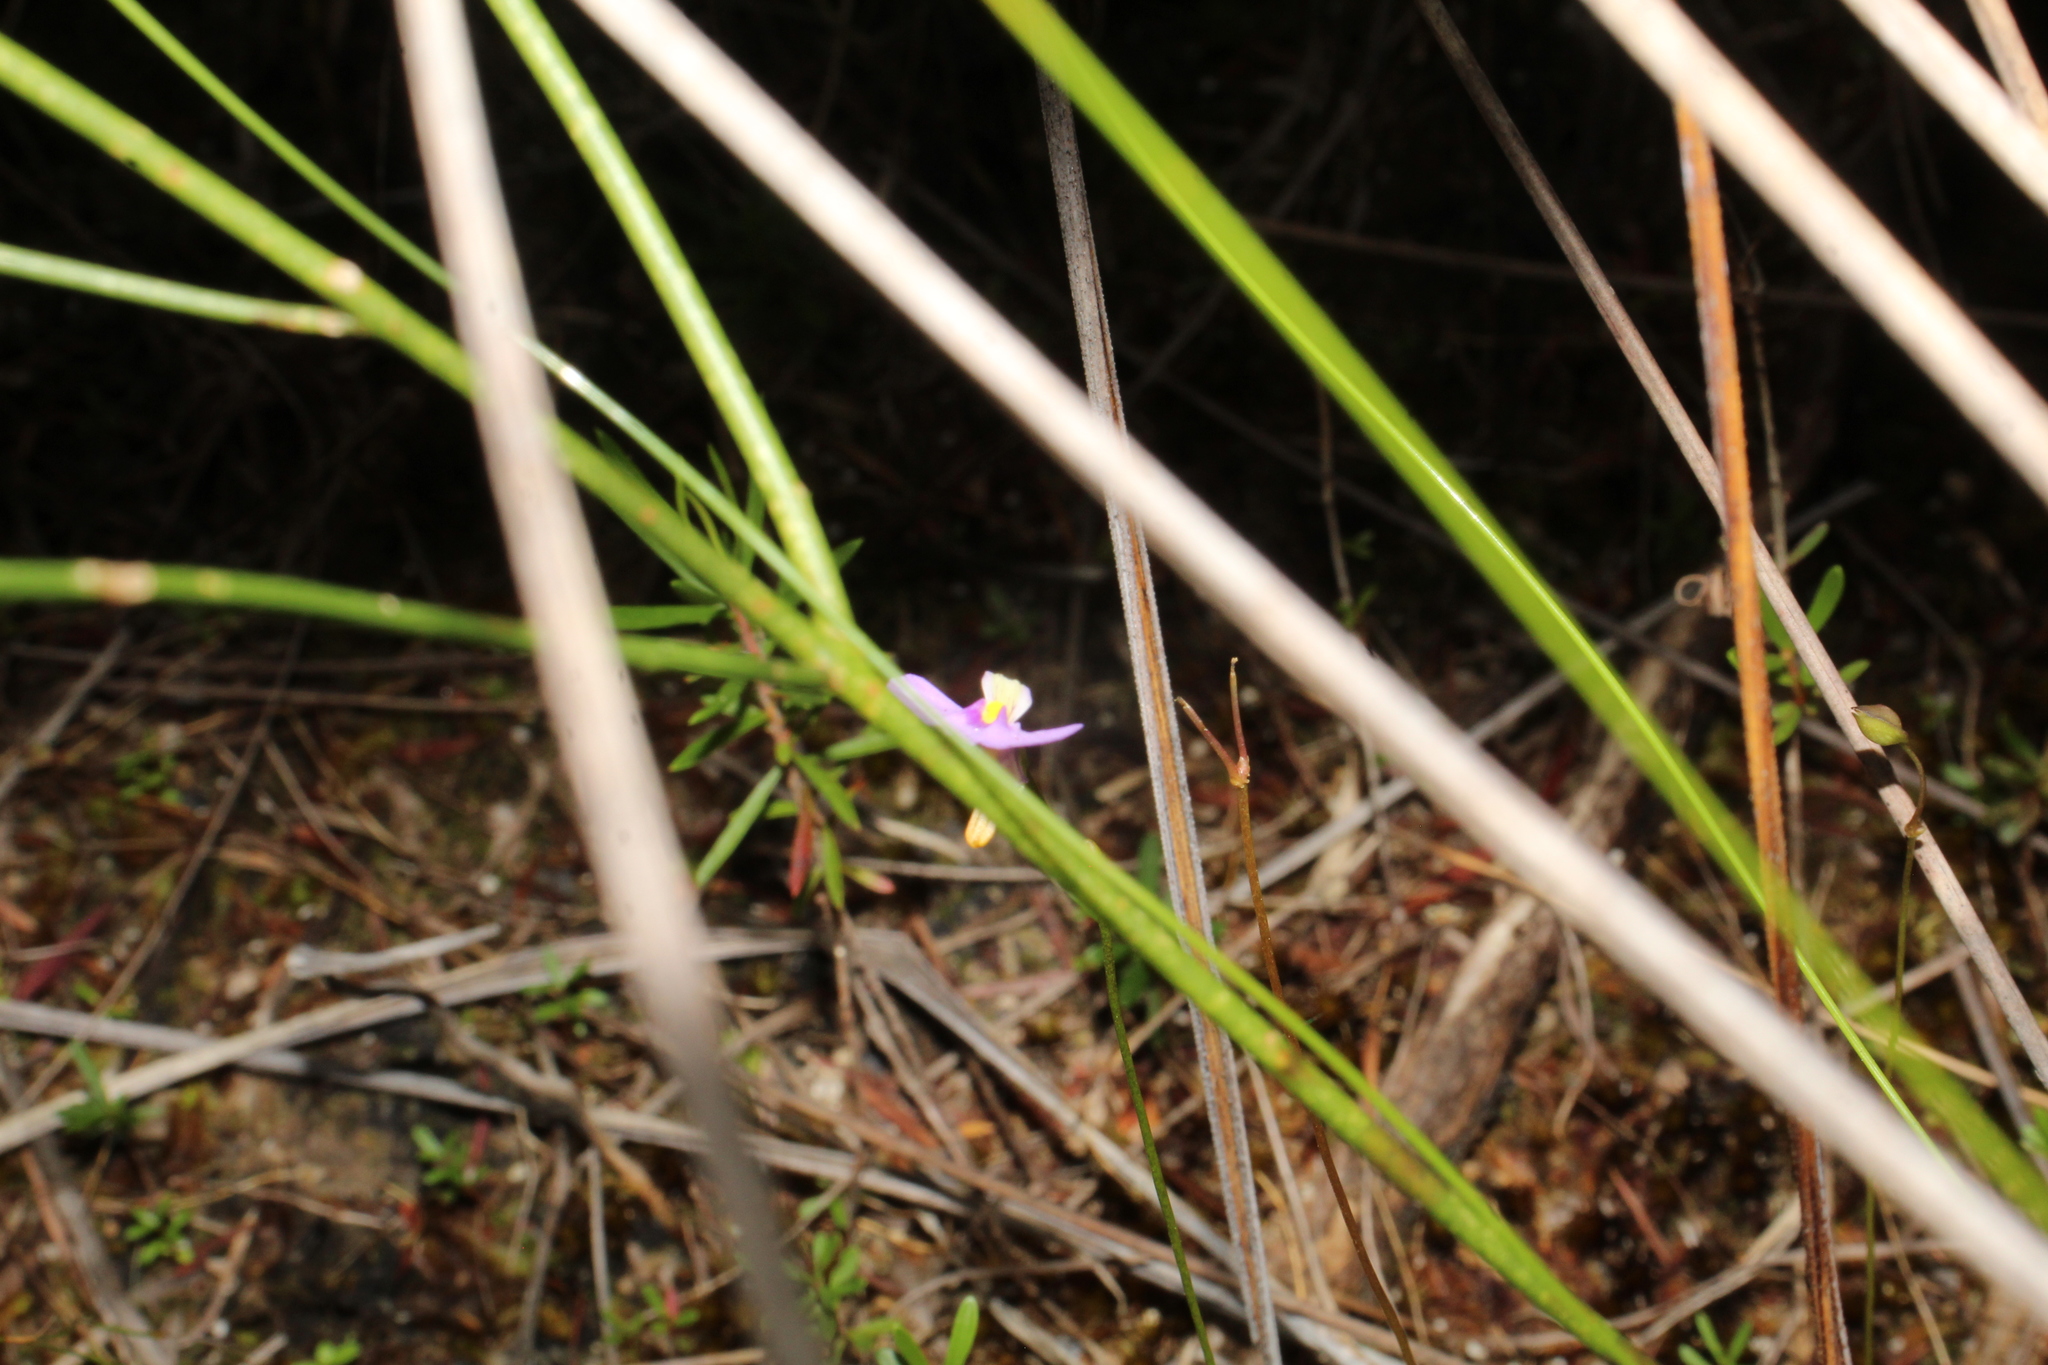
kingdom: Plantae
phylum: Tracheophyta
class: Magnoliopsida
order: Lamiales
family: Lentibulariaceae
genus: Utricularia
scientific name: Utricularia paulineae
